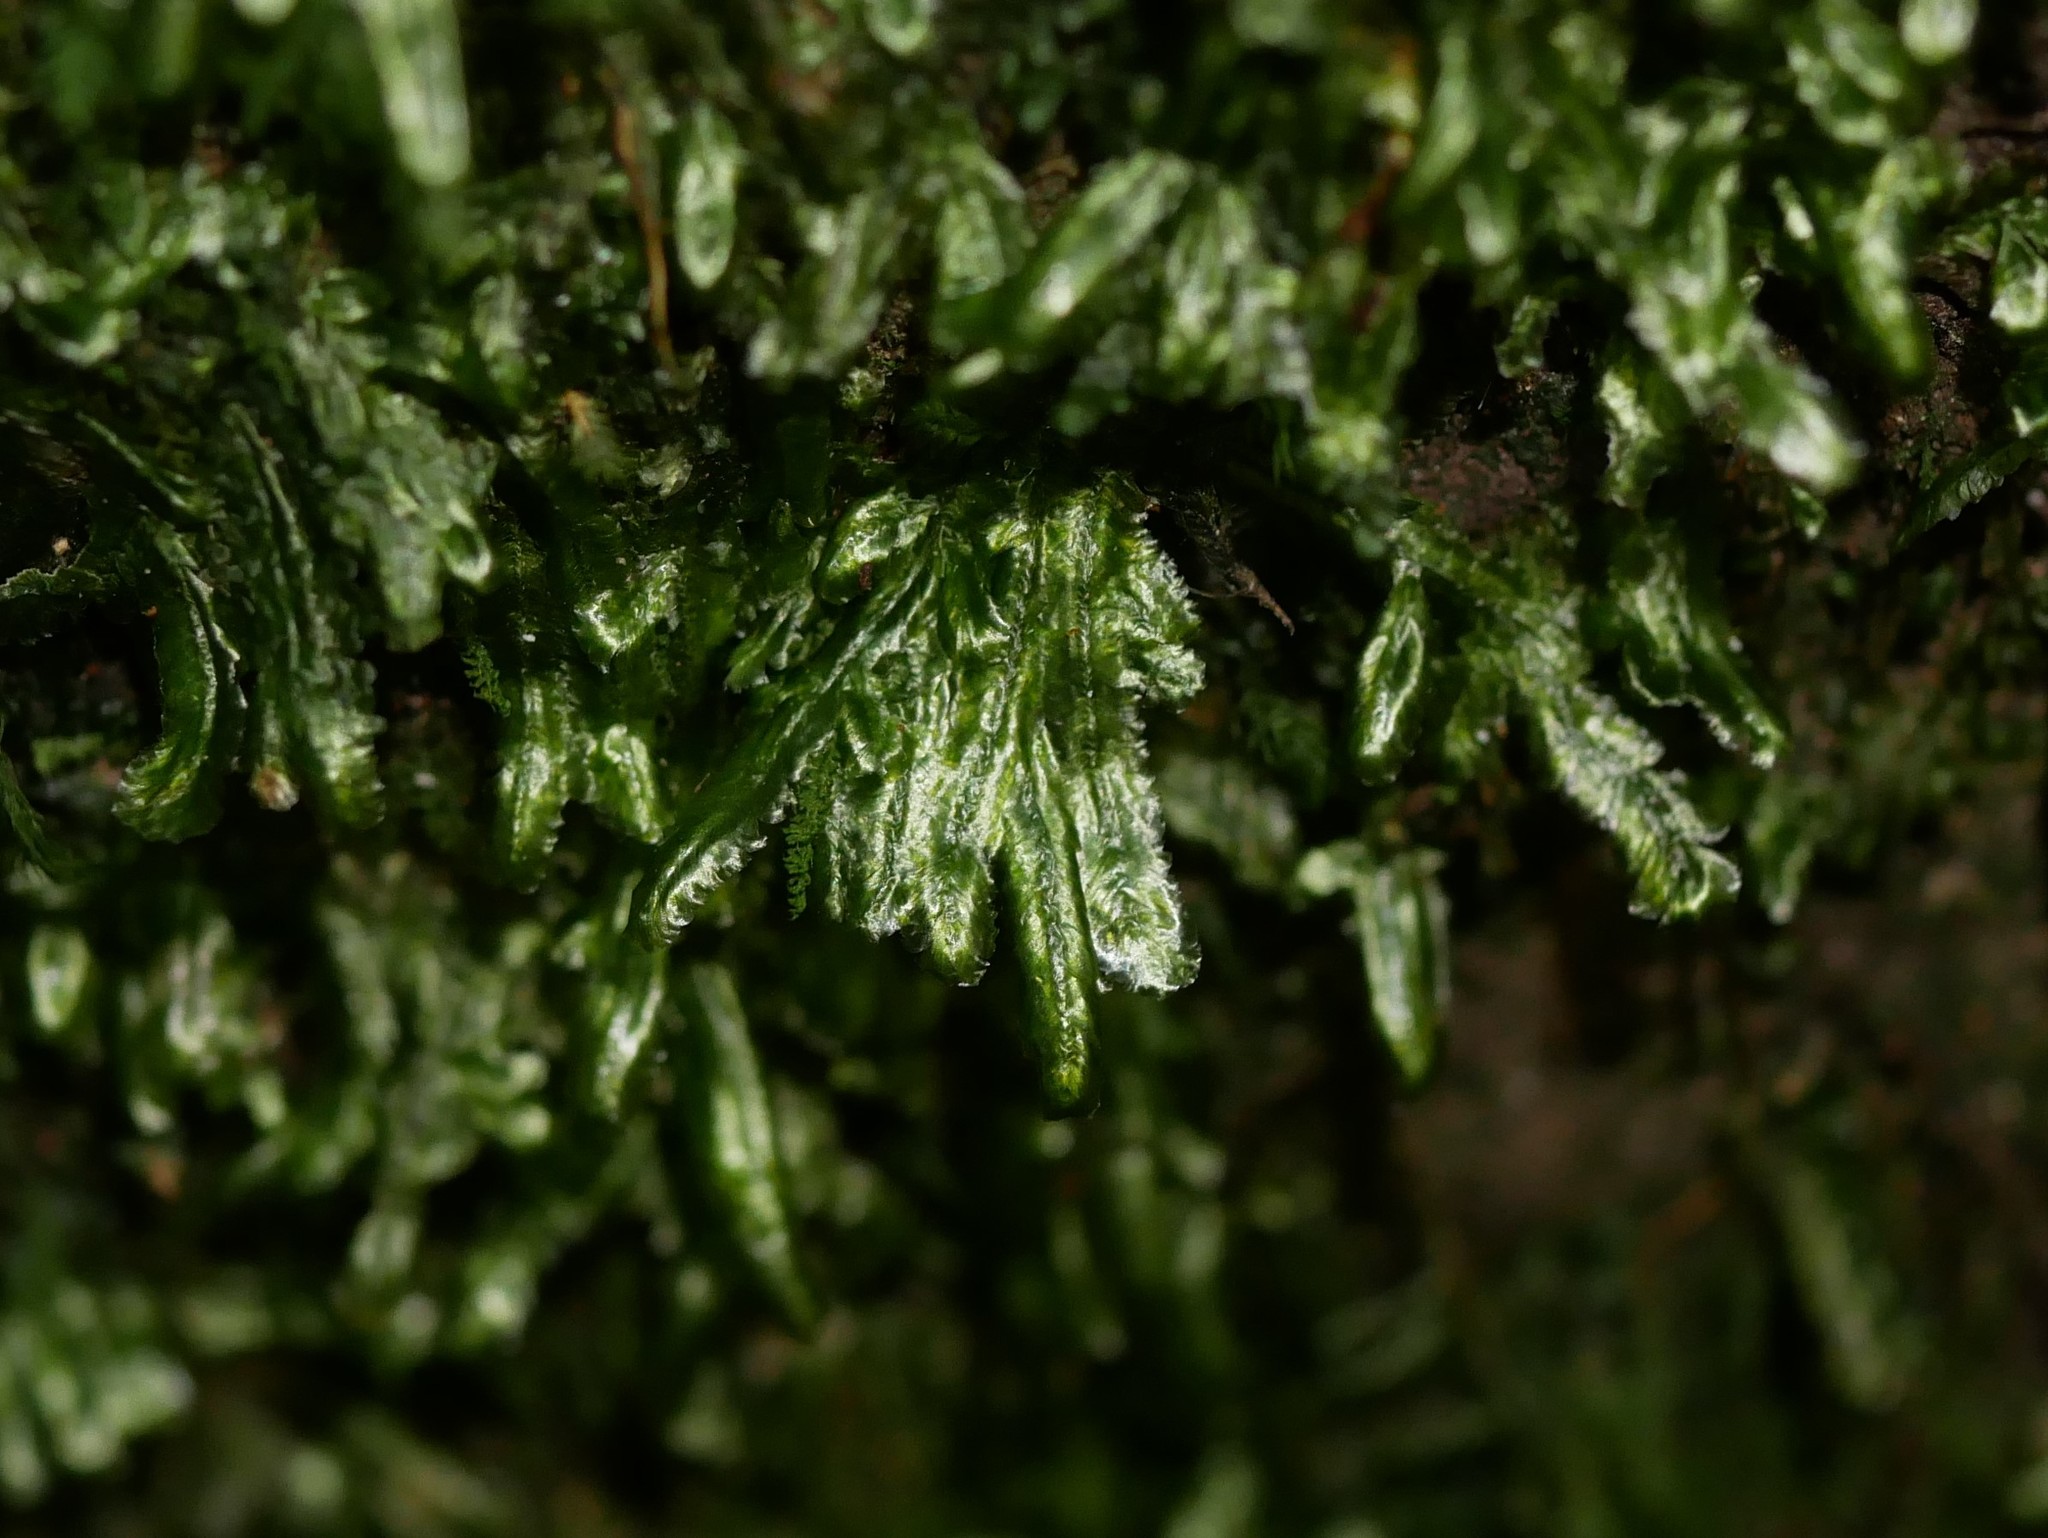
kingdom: Plantae
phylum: Bryophyta
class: Bryopsida
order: Hypnales
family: Lembophyllaceae
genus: Margrethypnum
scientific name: Margrethypnum falcifolium
